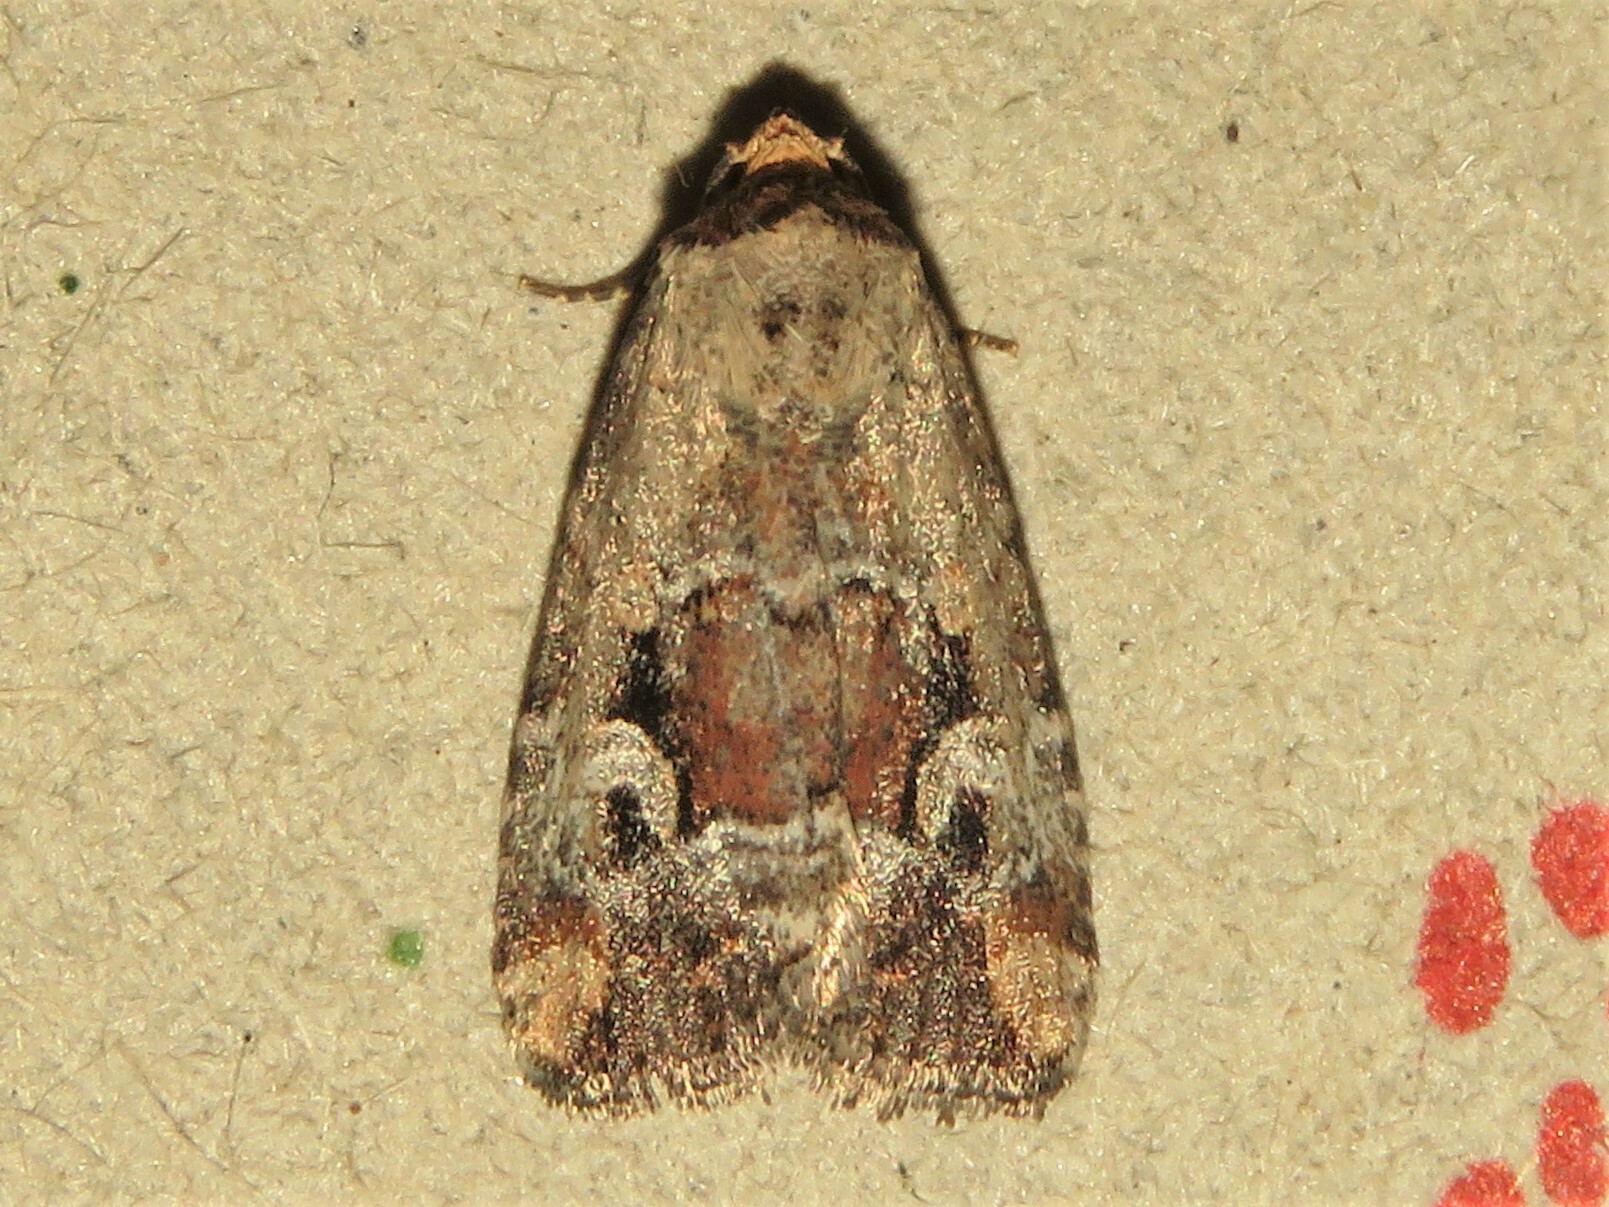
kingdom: Animalia
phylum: Arthropoda
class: Insecta
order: Lepidoptera
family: Noctuidae
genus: Elaphria
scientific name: Elaphria alapallida
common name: Pale-winged midget
